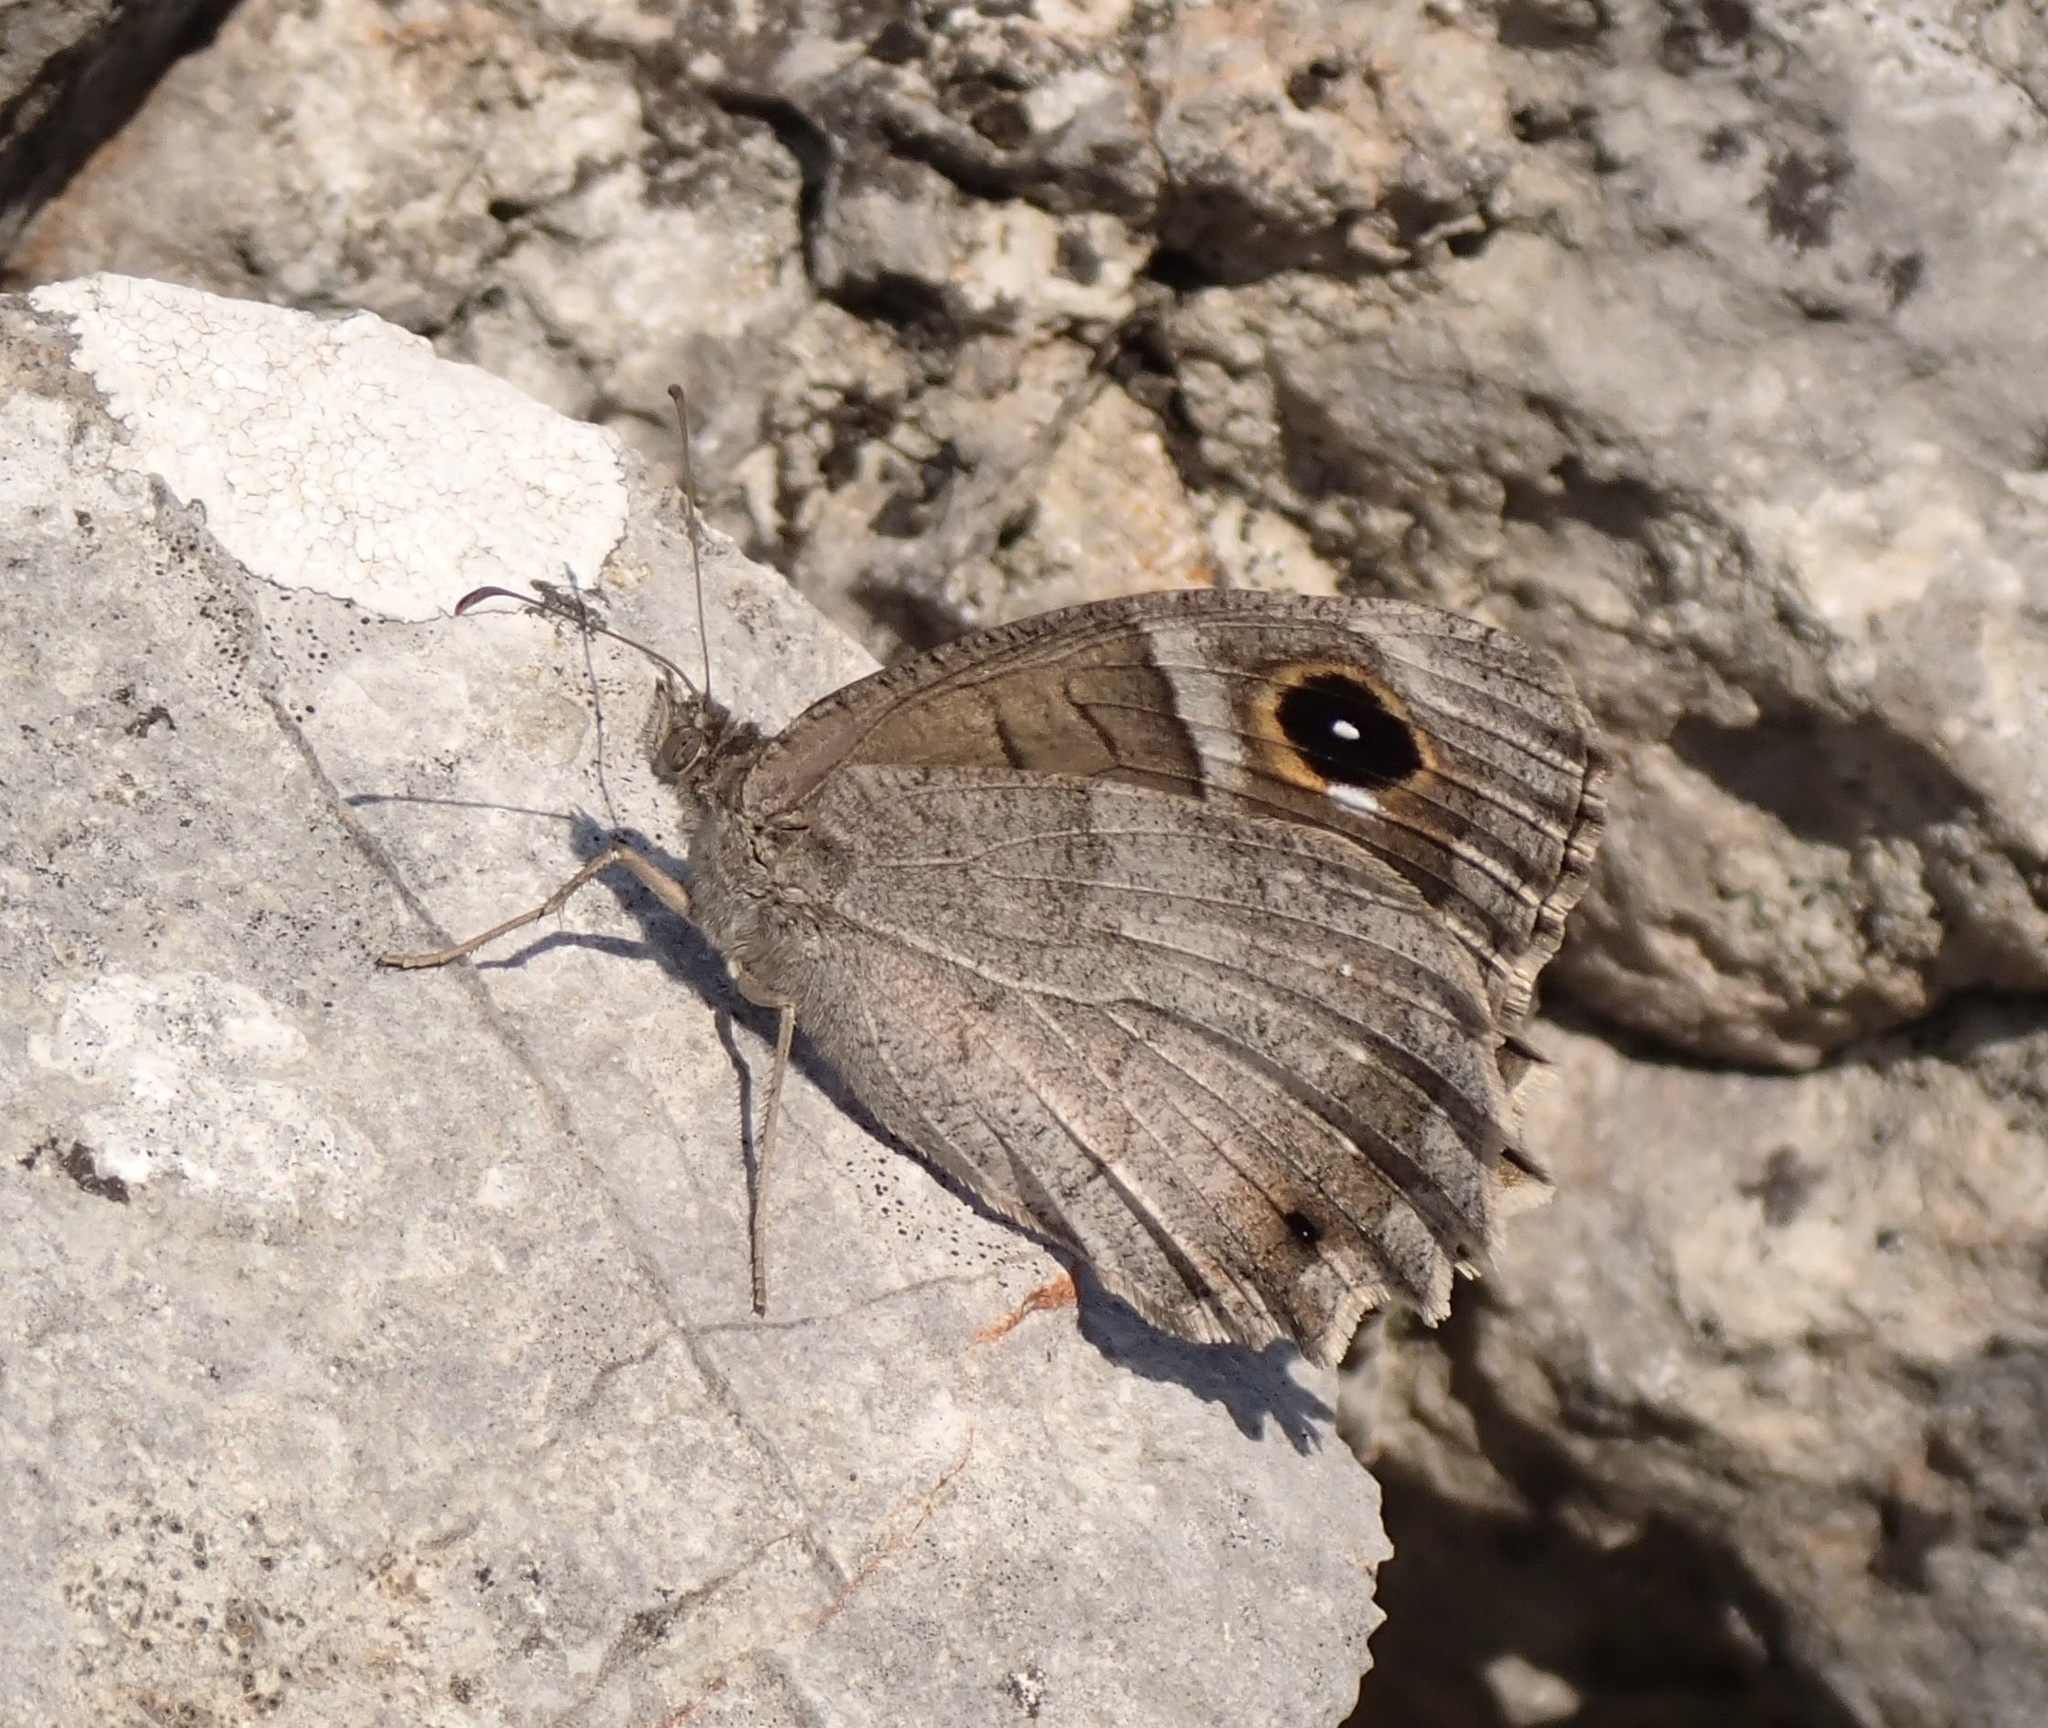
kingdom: Animalia
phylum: Arthropoda
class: Insecta
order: Lepidoptera
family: Nymphalidae
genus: Hipparchia
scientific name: Hipparchia statilinus
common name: Tree grayling
